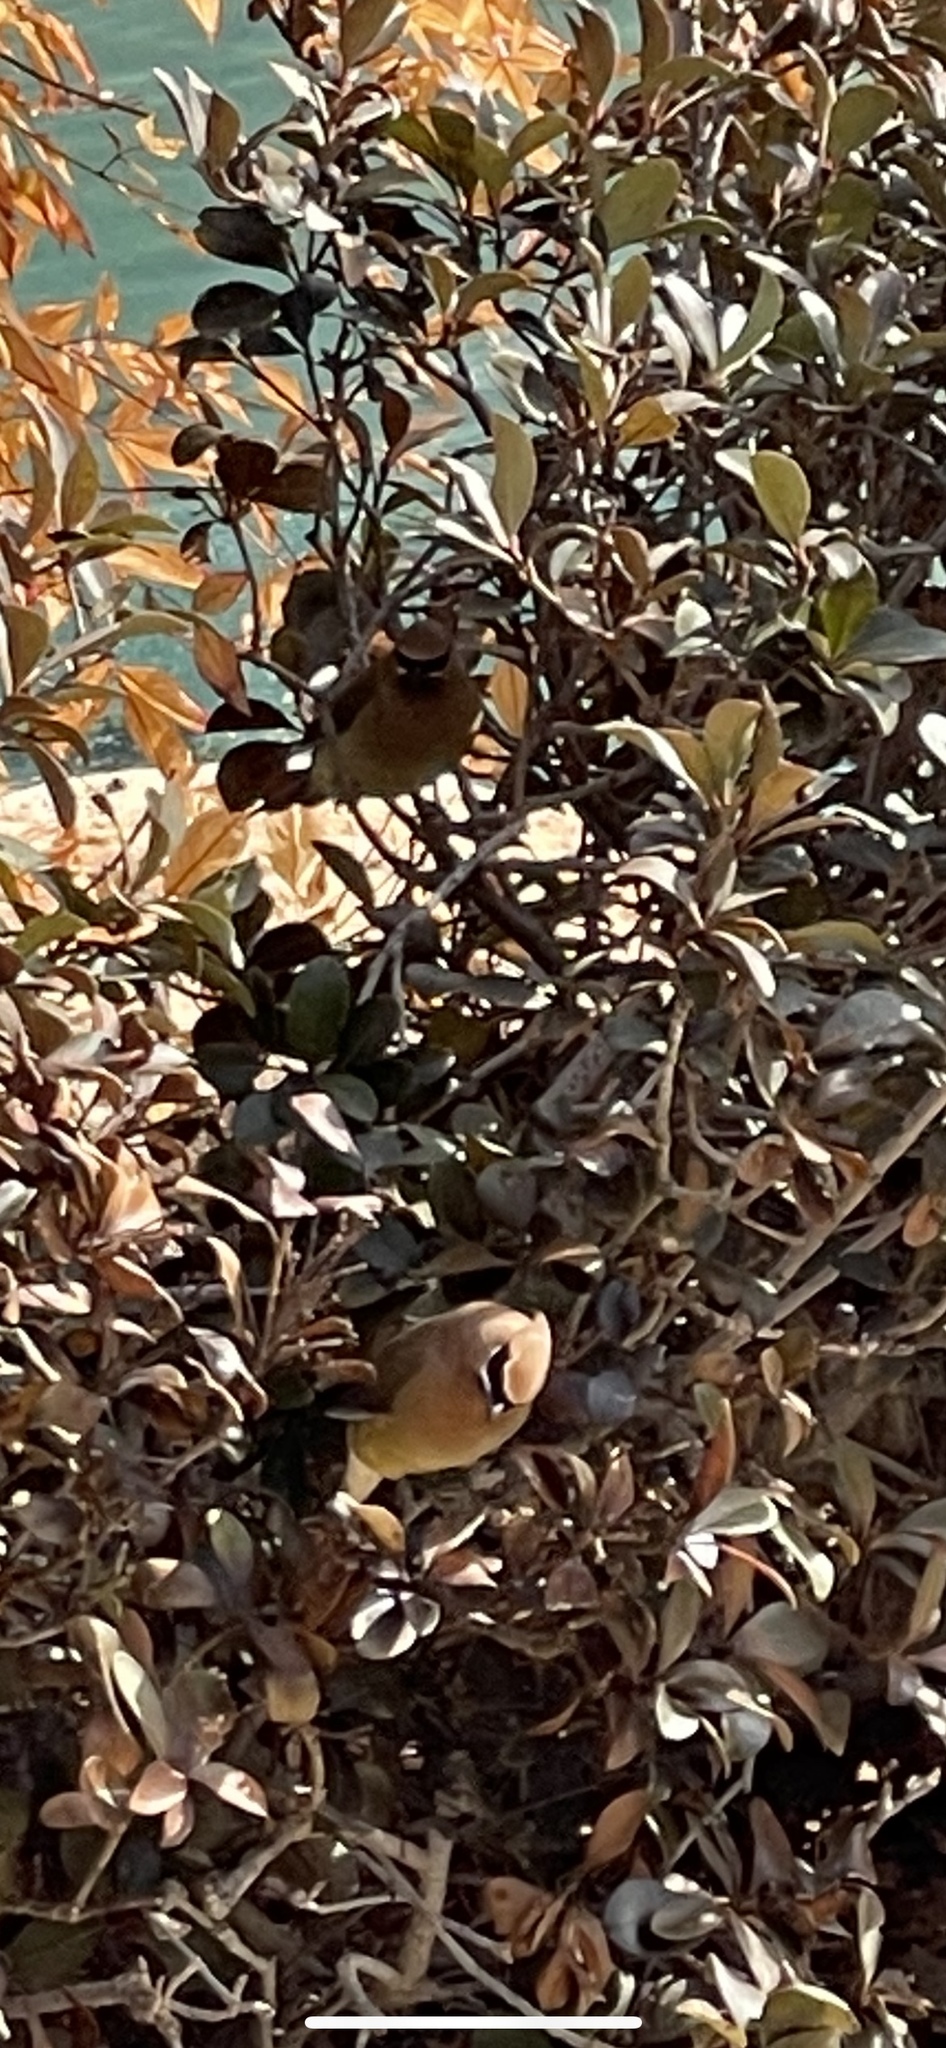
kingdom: Animalia
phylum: Chordata
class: Aves
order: Passeriformes
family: Bombycillidae
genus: Bombycilla
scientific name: Bombycilla cedrorum
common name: Cedar waxwing
